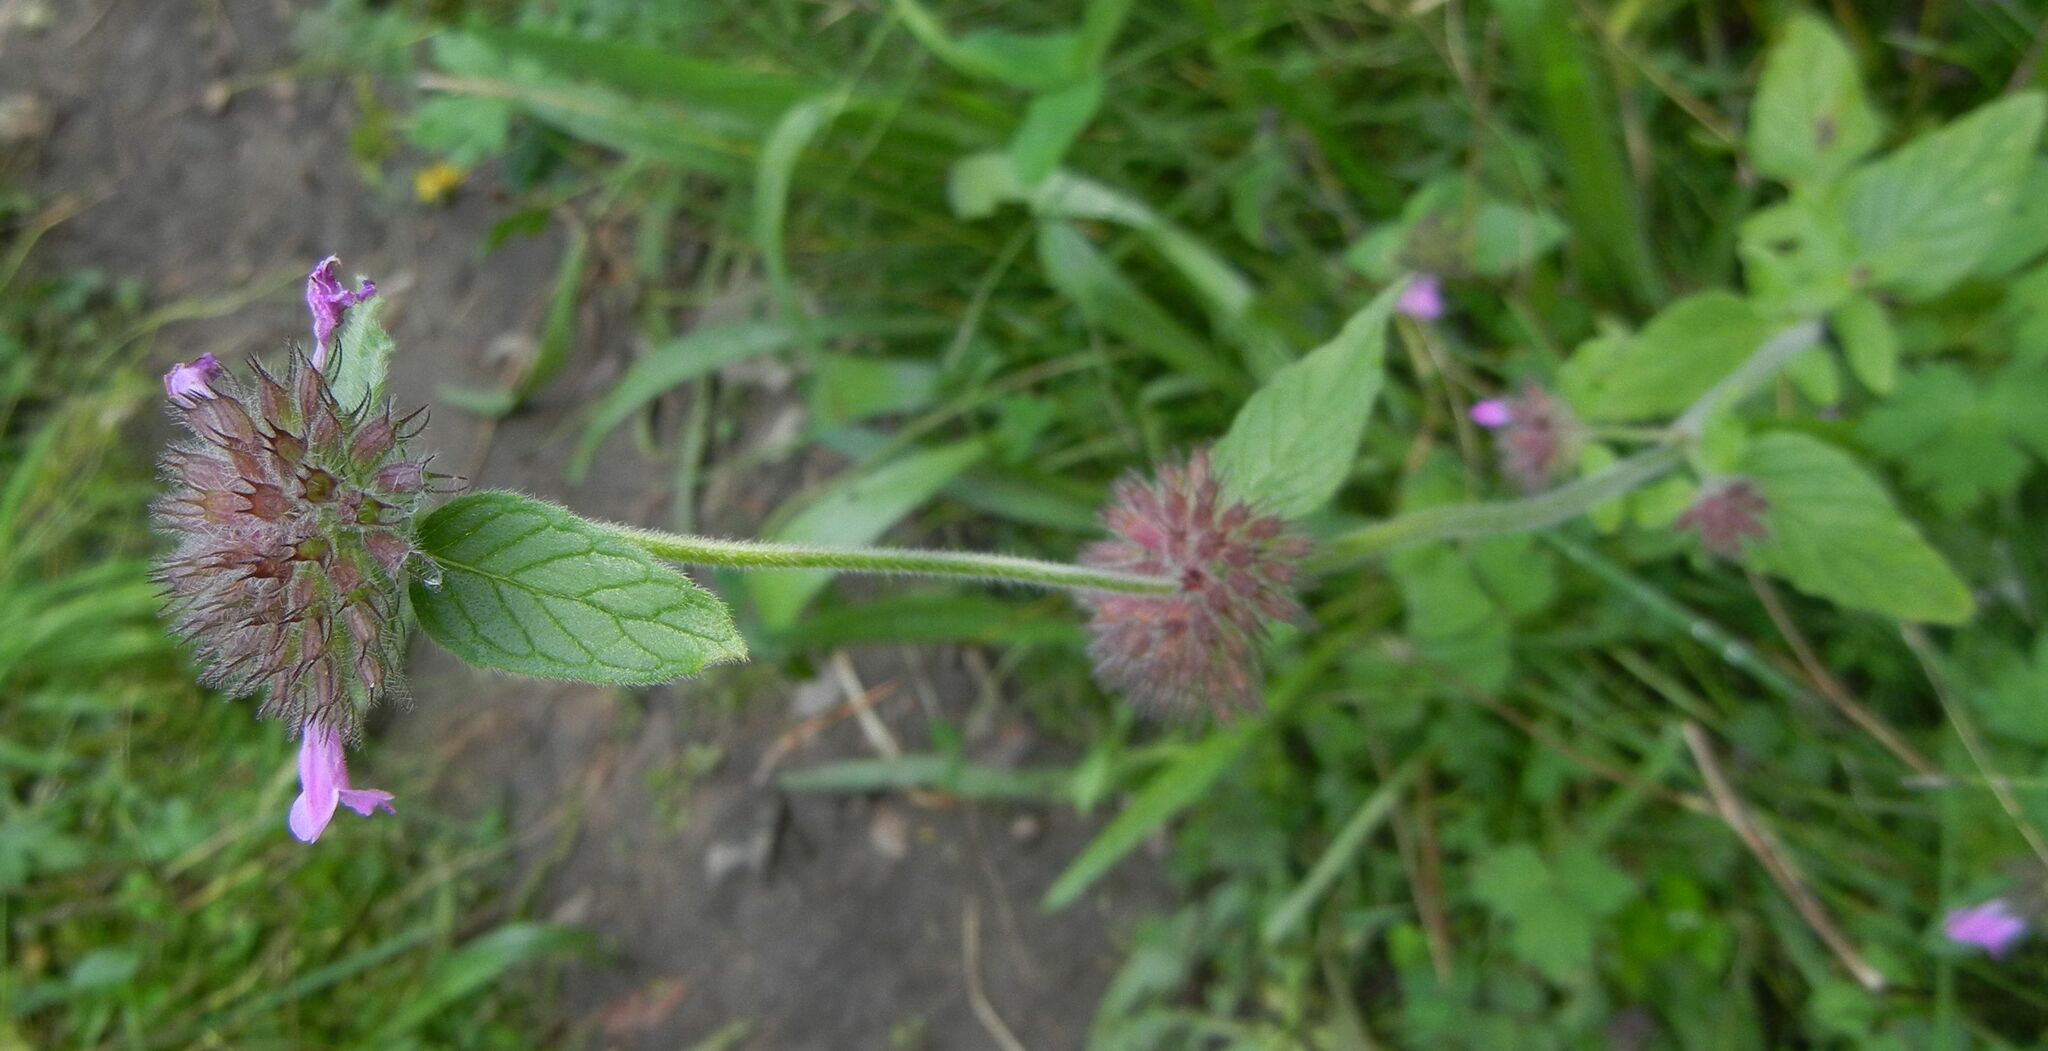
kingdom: Plantae
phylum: Tracheophyta
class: Magnoliopsida
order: Lamiales
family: Lamiaceae
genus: Clinopodium
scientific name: Clinopodium vulgare
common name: Wild basil
